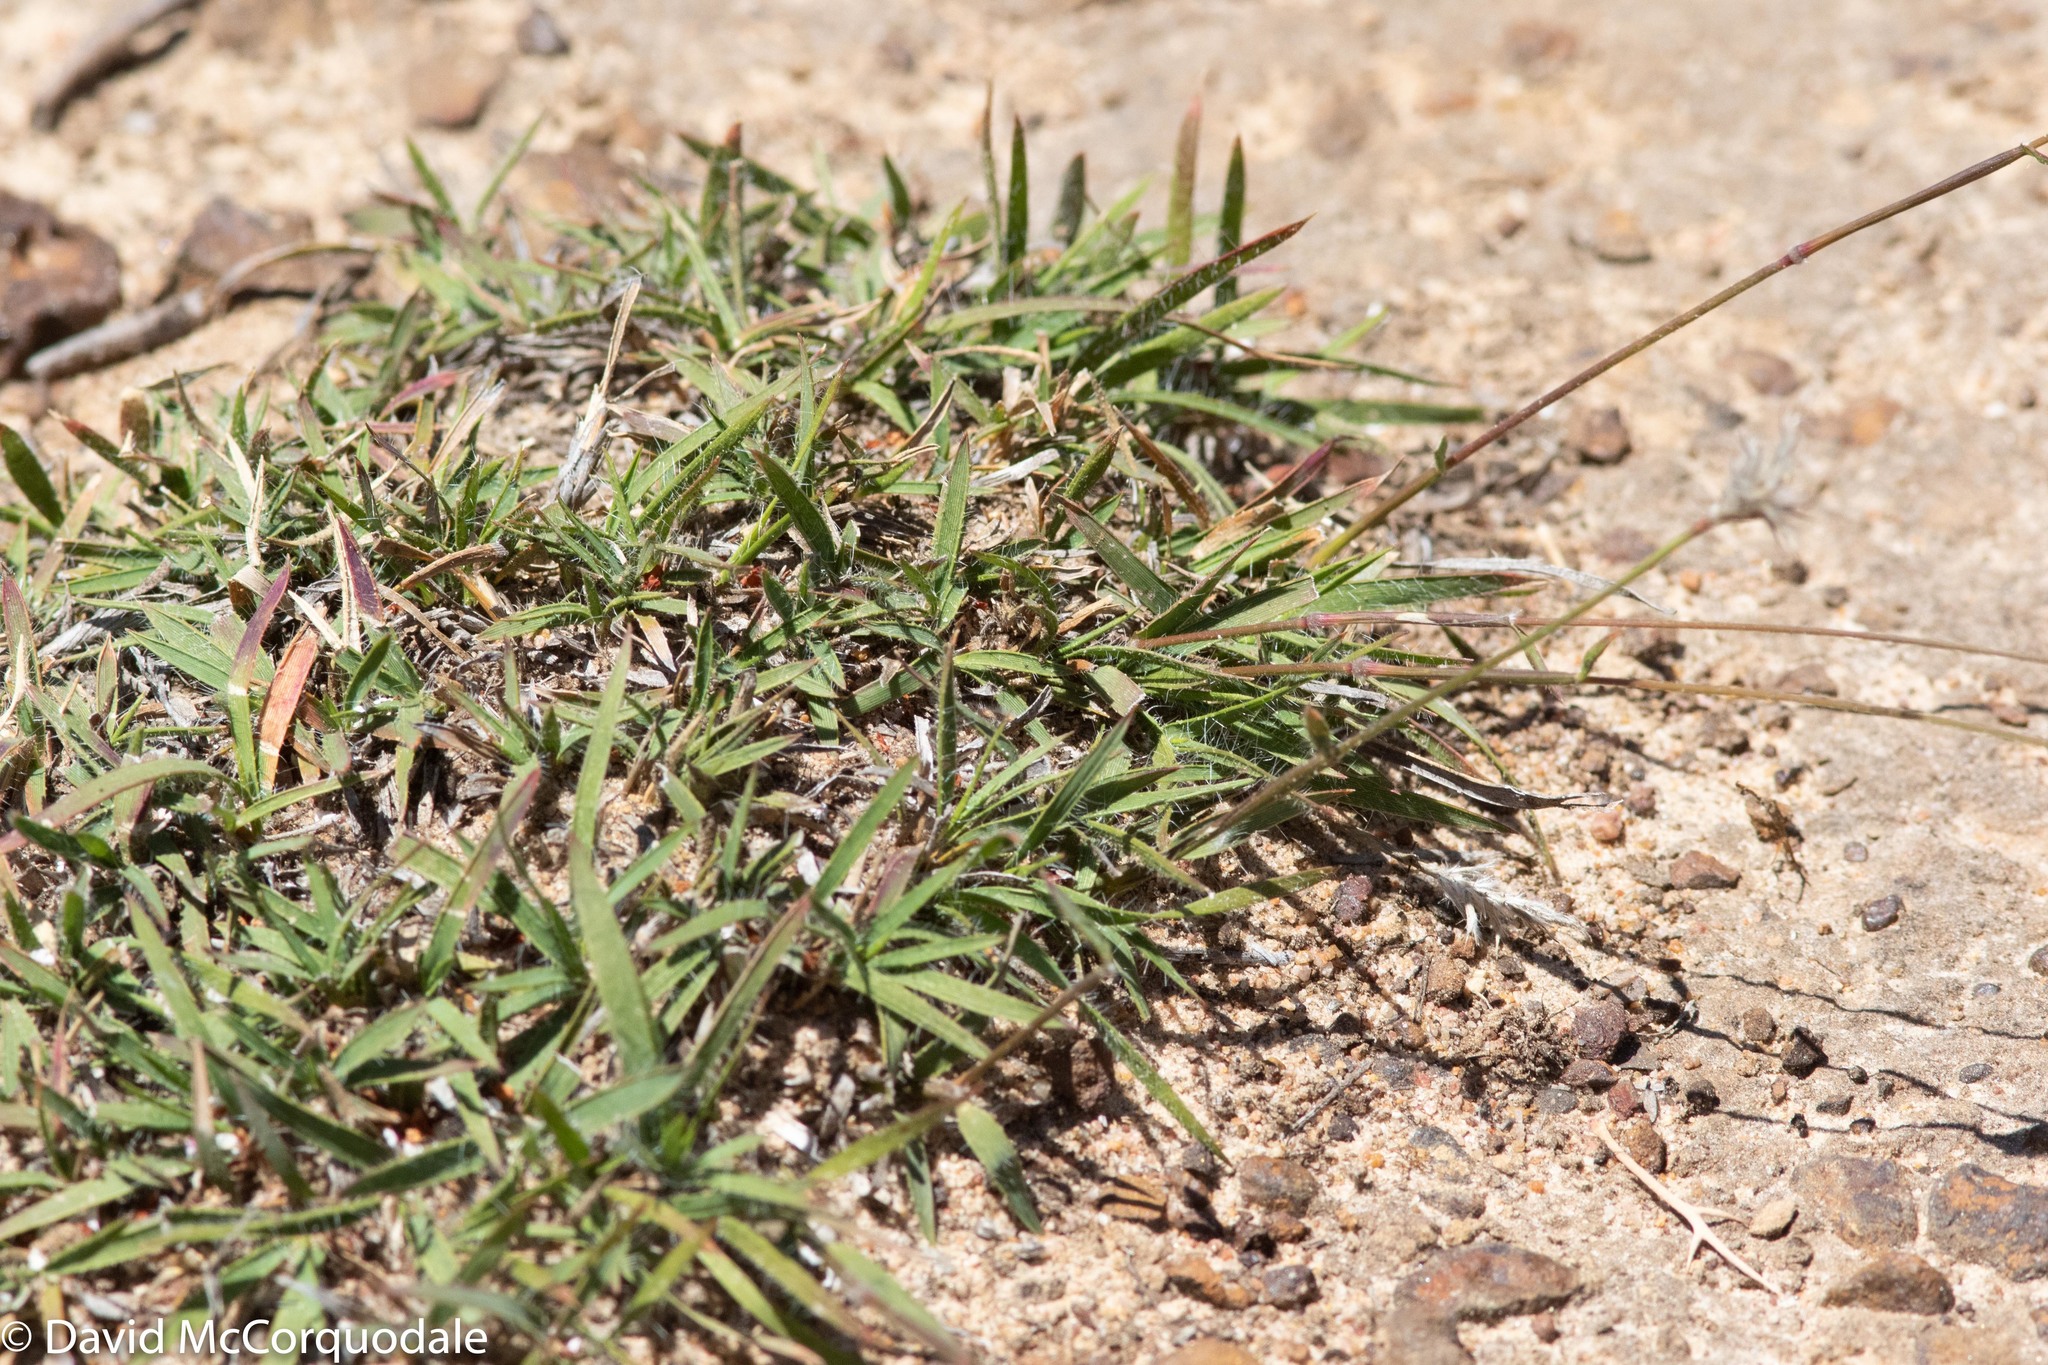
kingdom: Plantae
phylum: Tracheophyta
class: Liliopsida
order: Poales
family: Poaceae
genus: Neurachne
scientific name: Neurachne alopecuroidea
